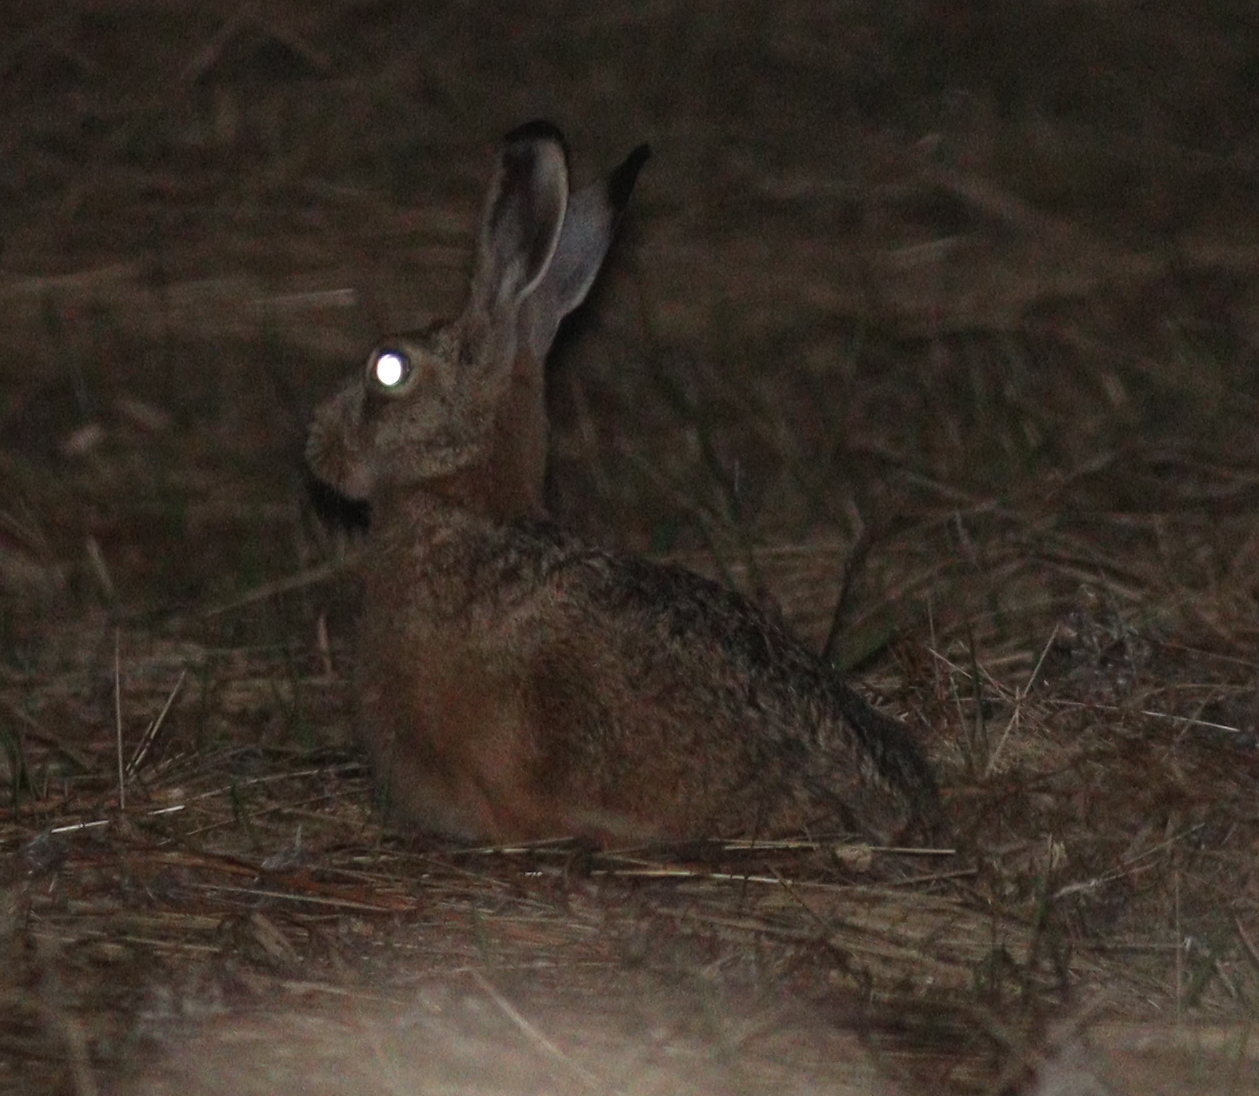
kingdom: Animalia
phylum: Chordata
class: Mammalia
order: Lagomorpha
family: Leporidae
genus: Lepus
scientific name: Lepus europaeus
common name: European hare
